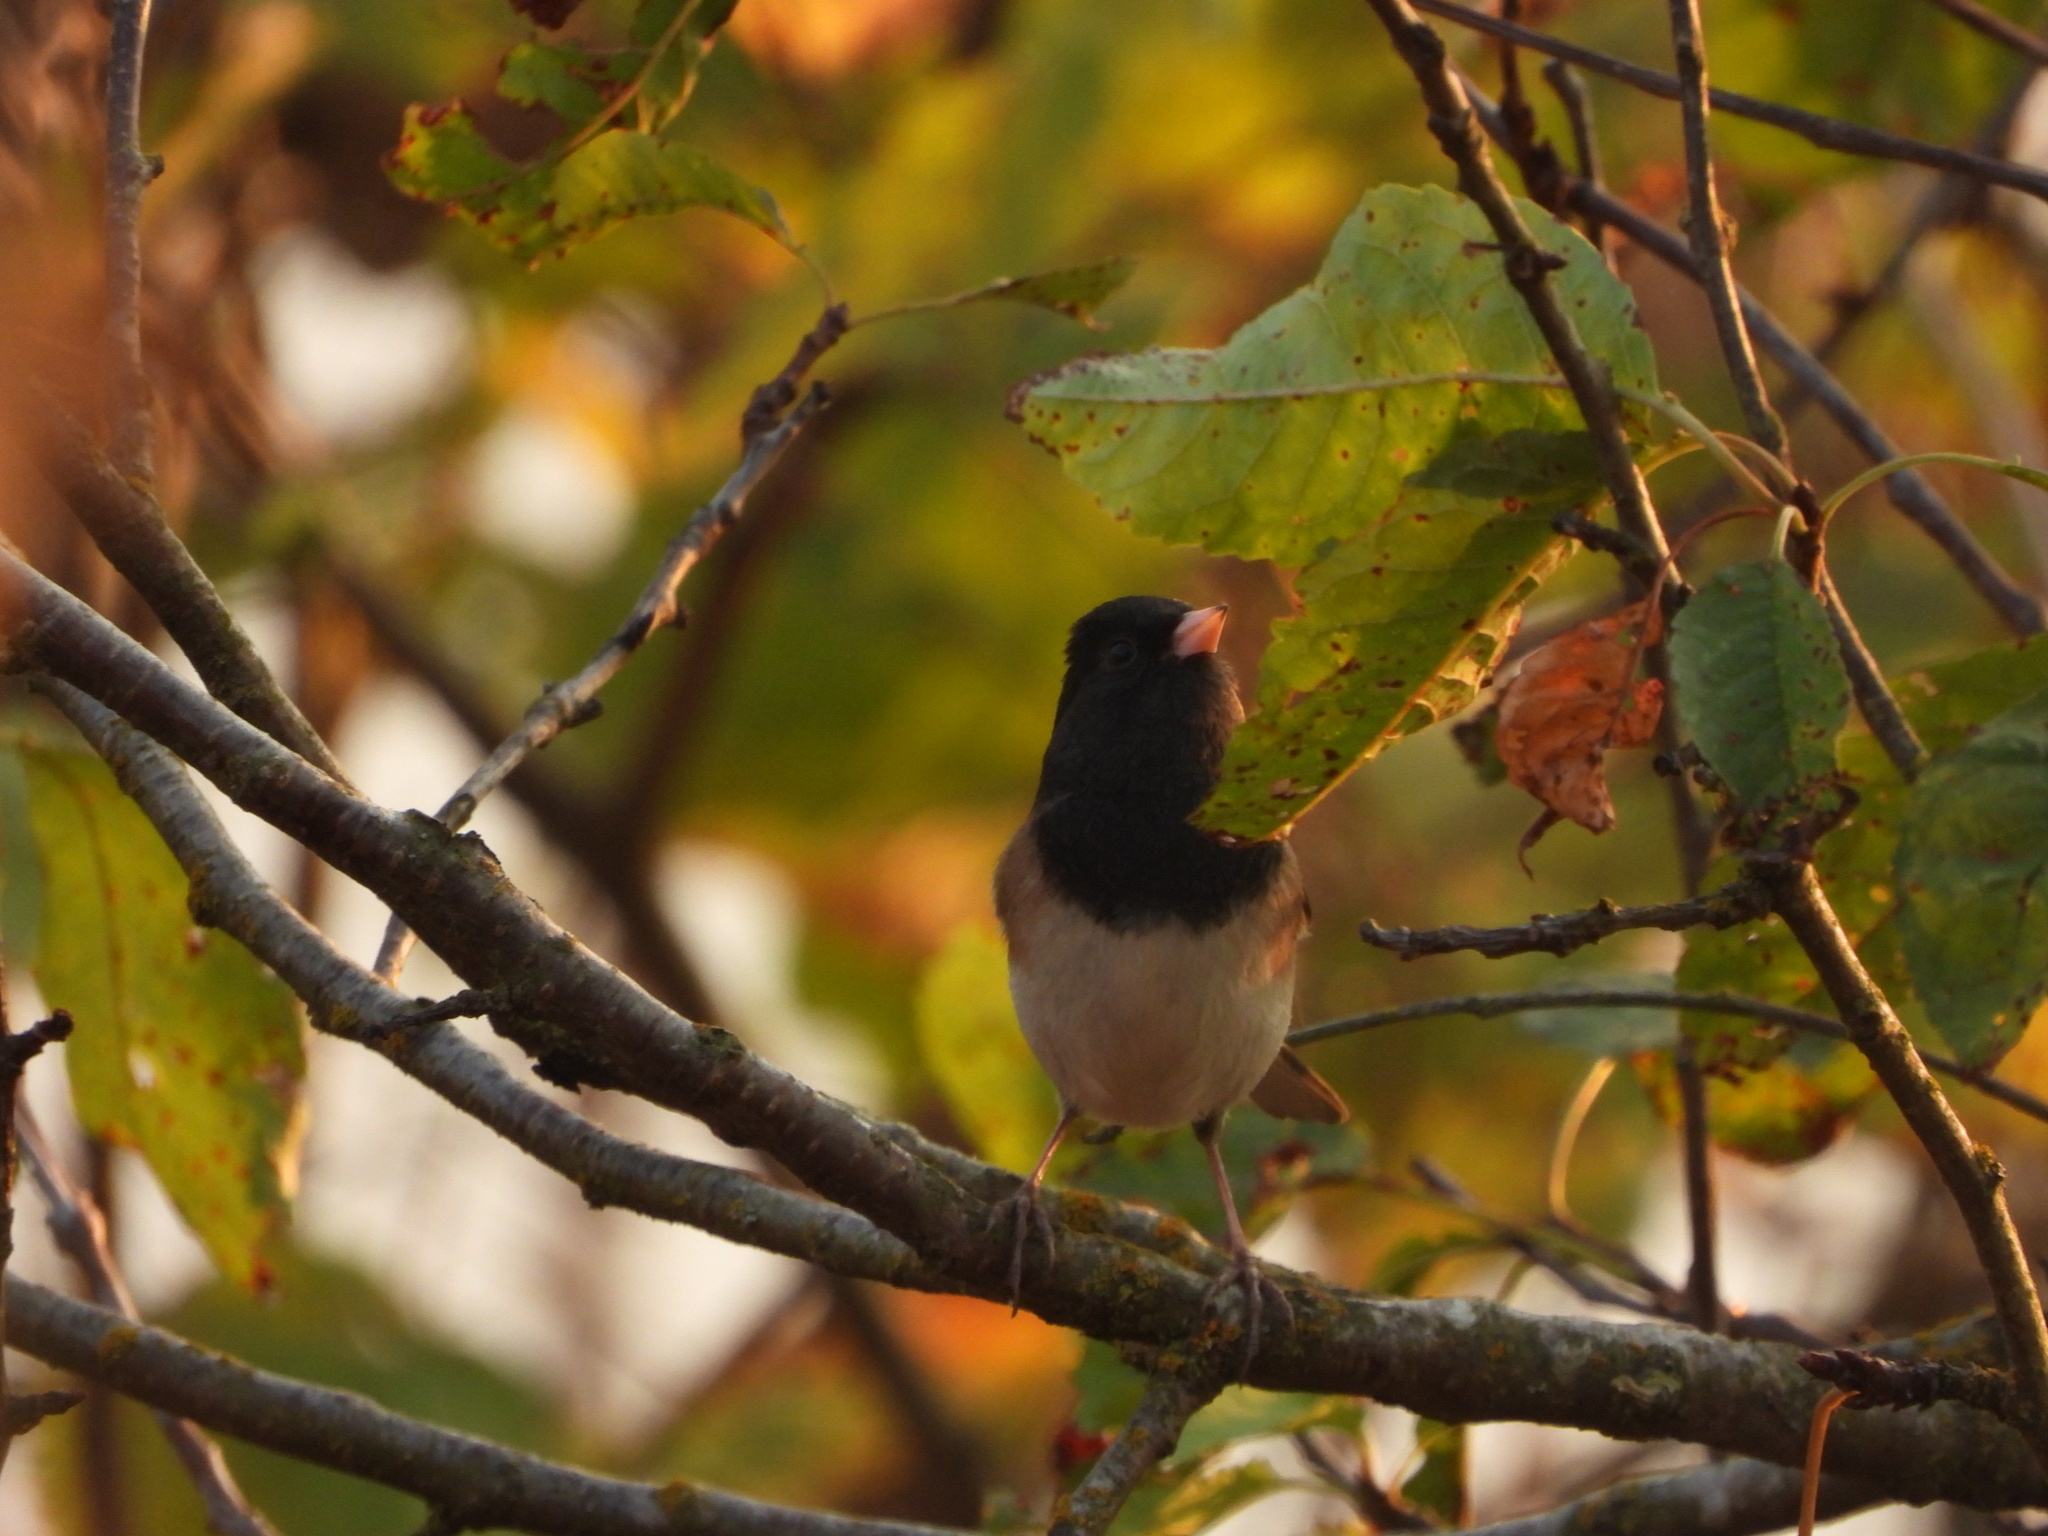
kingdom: Animalia
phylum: Chordata
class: Aves
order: Passeriformes
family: Passerellidae
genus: Junco
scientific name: Junco hyemalis
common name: Dark-eyed junco
